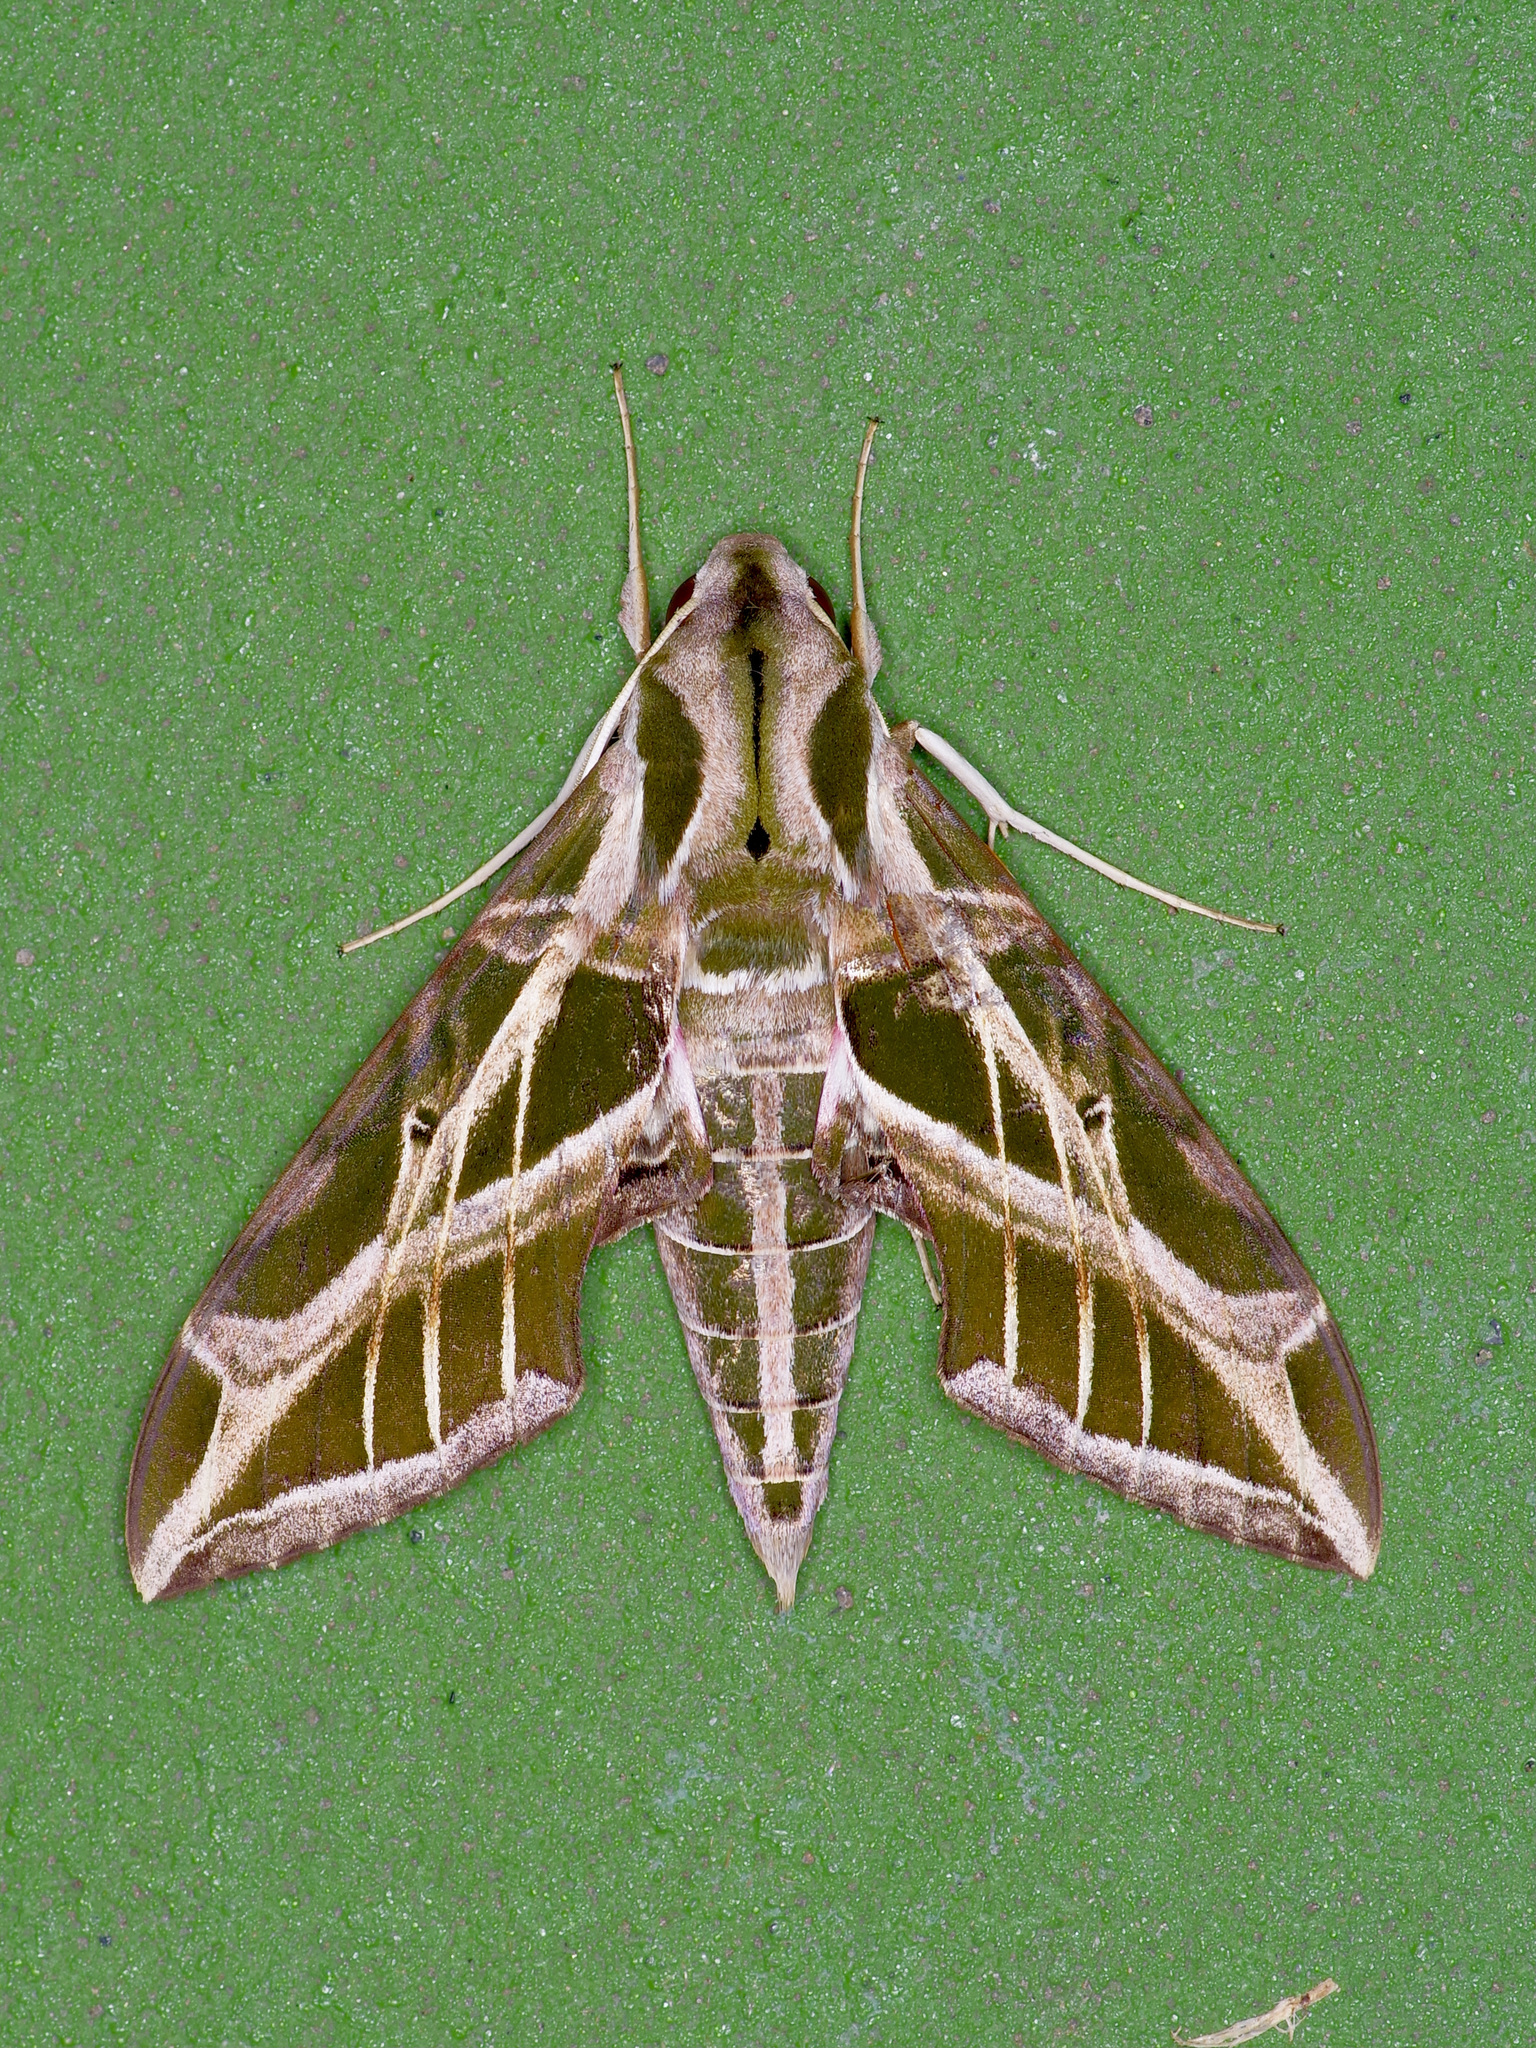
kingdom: Animalia
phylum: Arthropoda
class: Insecta
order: Lepidoptera
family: Sphingidae
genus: Eumorpha
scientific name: Eumorpha vitis
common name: Vine sphinx
